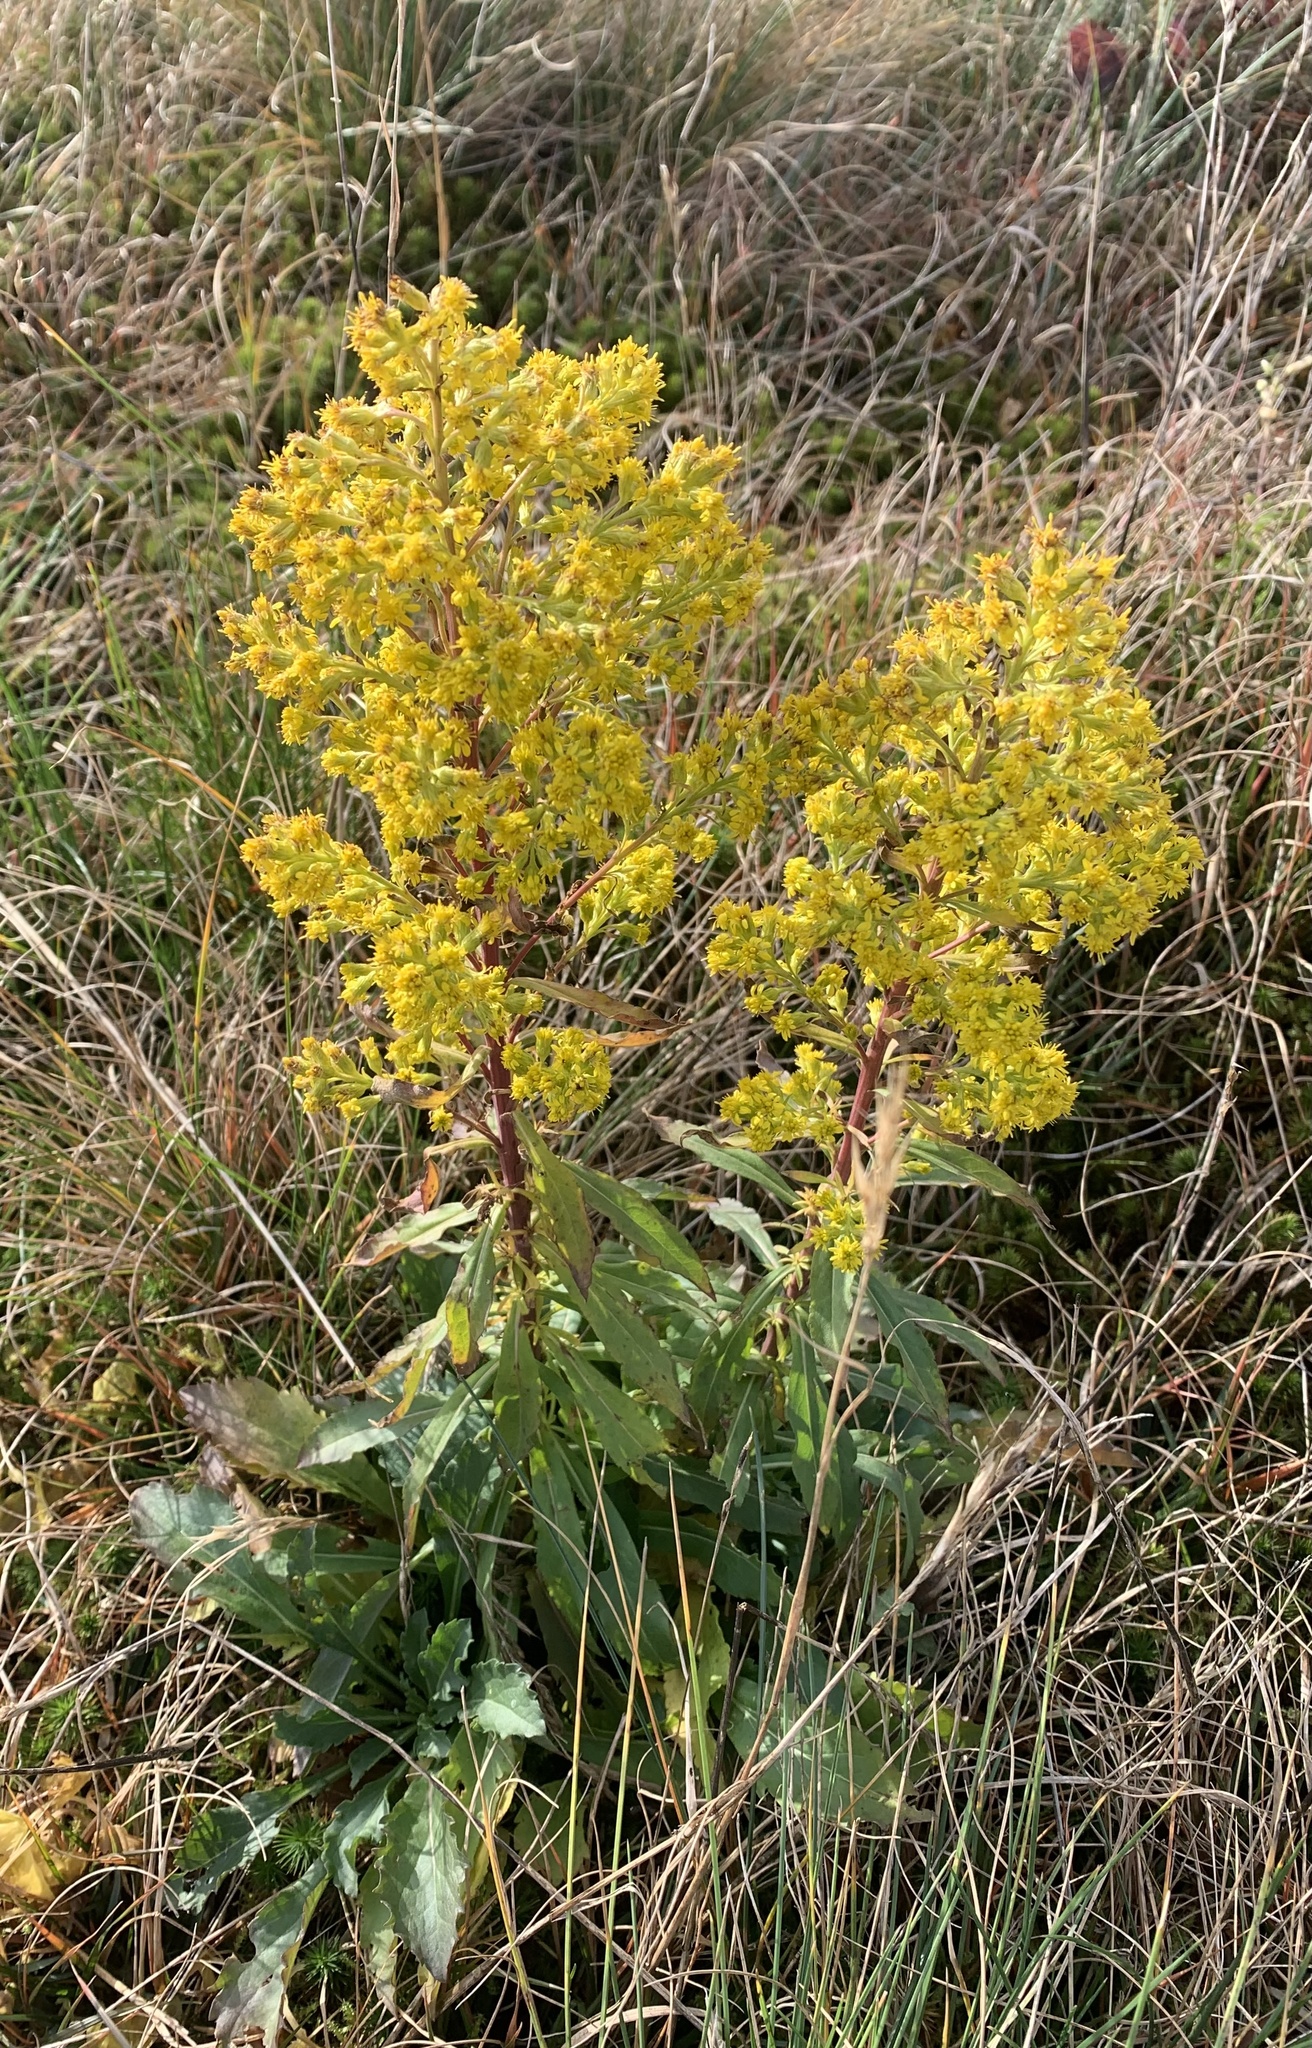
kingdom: Plantae
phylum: Tracheophyta
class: Magnoliopsida
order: Asterales
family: Asteraceae
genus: Solidago
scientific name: Solidago puberula
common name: Downy goldenrod
